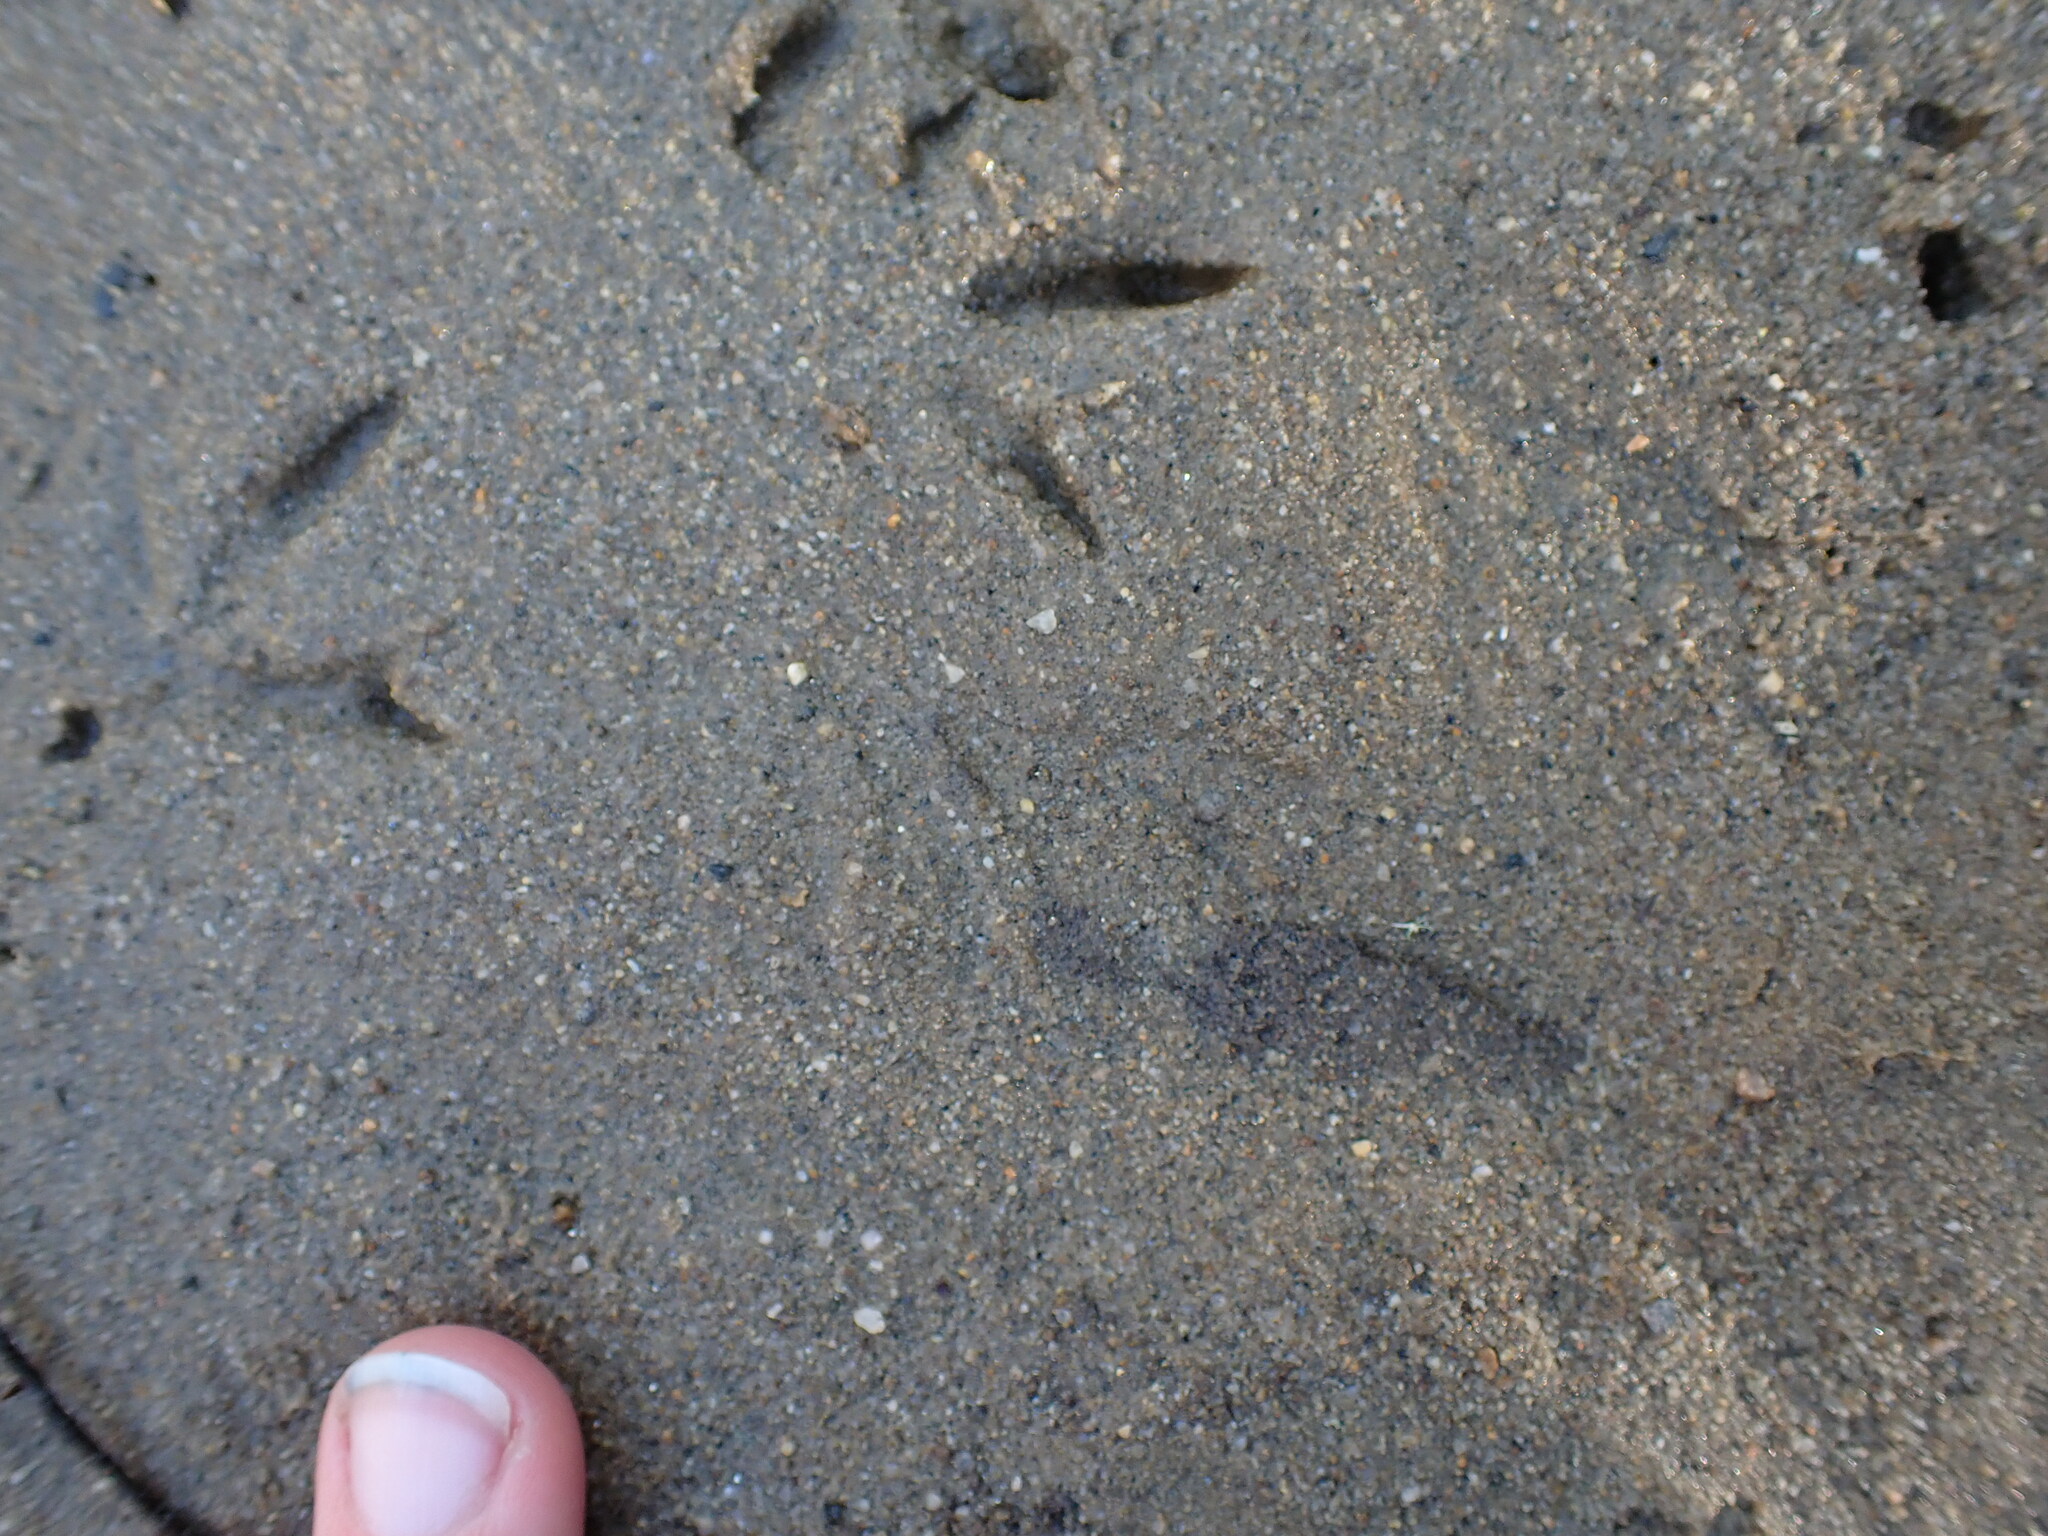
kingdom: Animalia
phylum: Chordata
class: Aves
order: Charadriiformes
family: Scolopacidae
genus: Actitis
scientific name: Actitis macularius
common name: Spotted sandpiper
